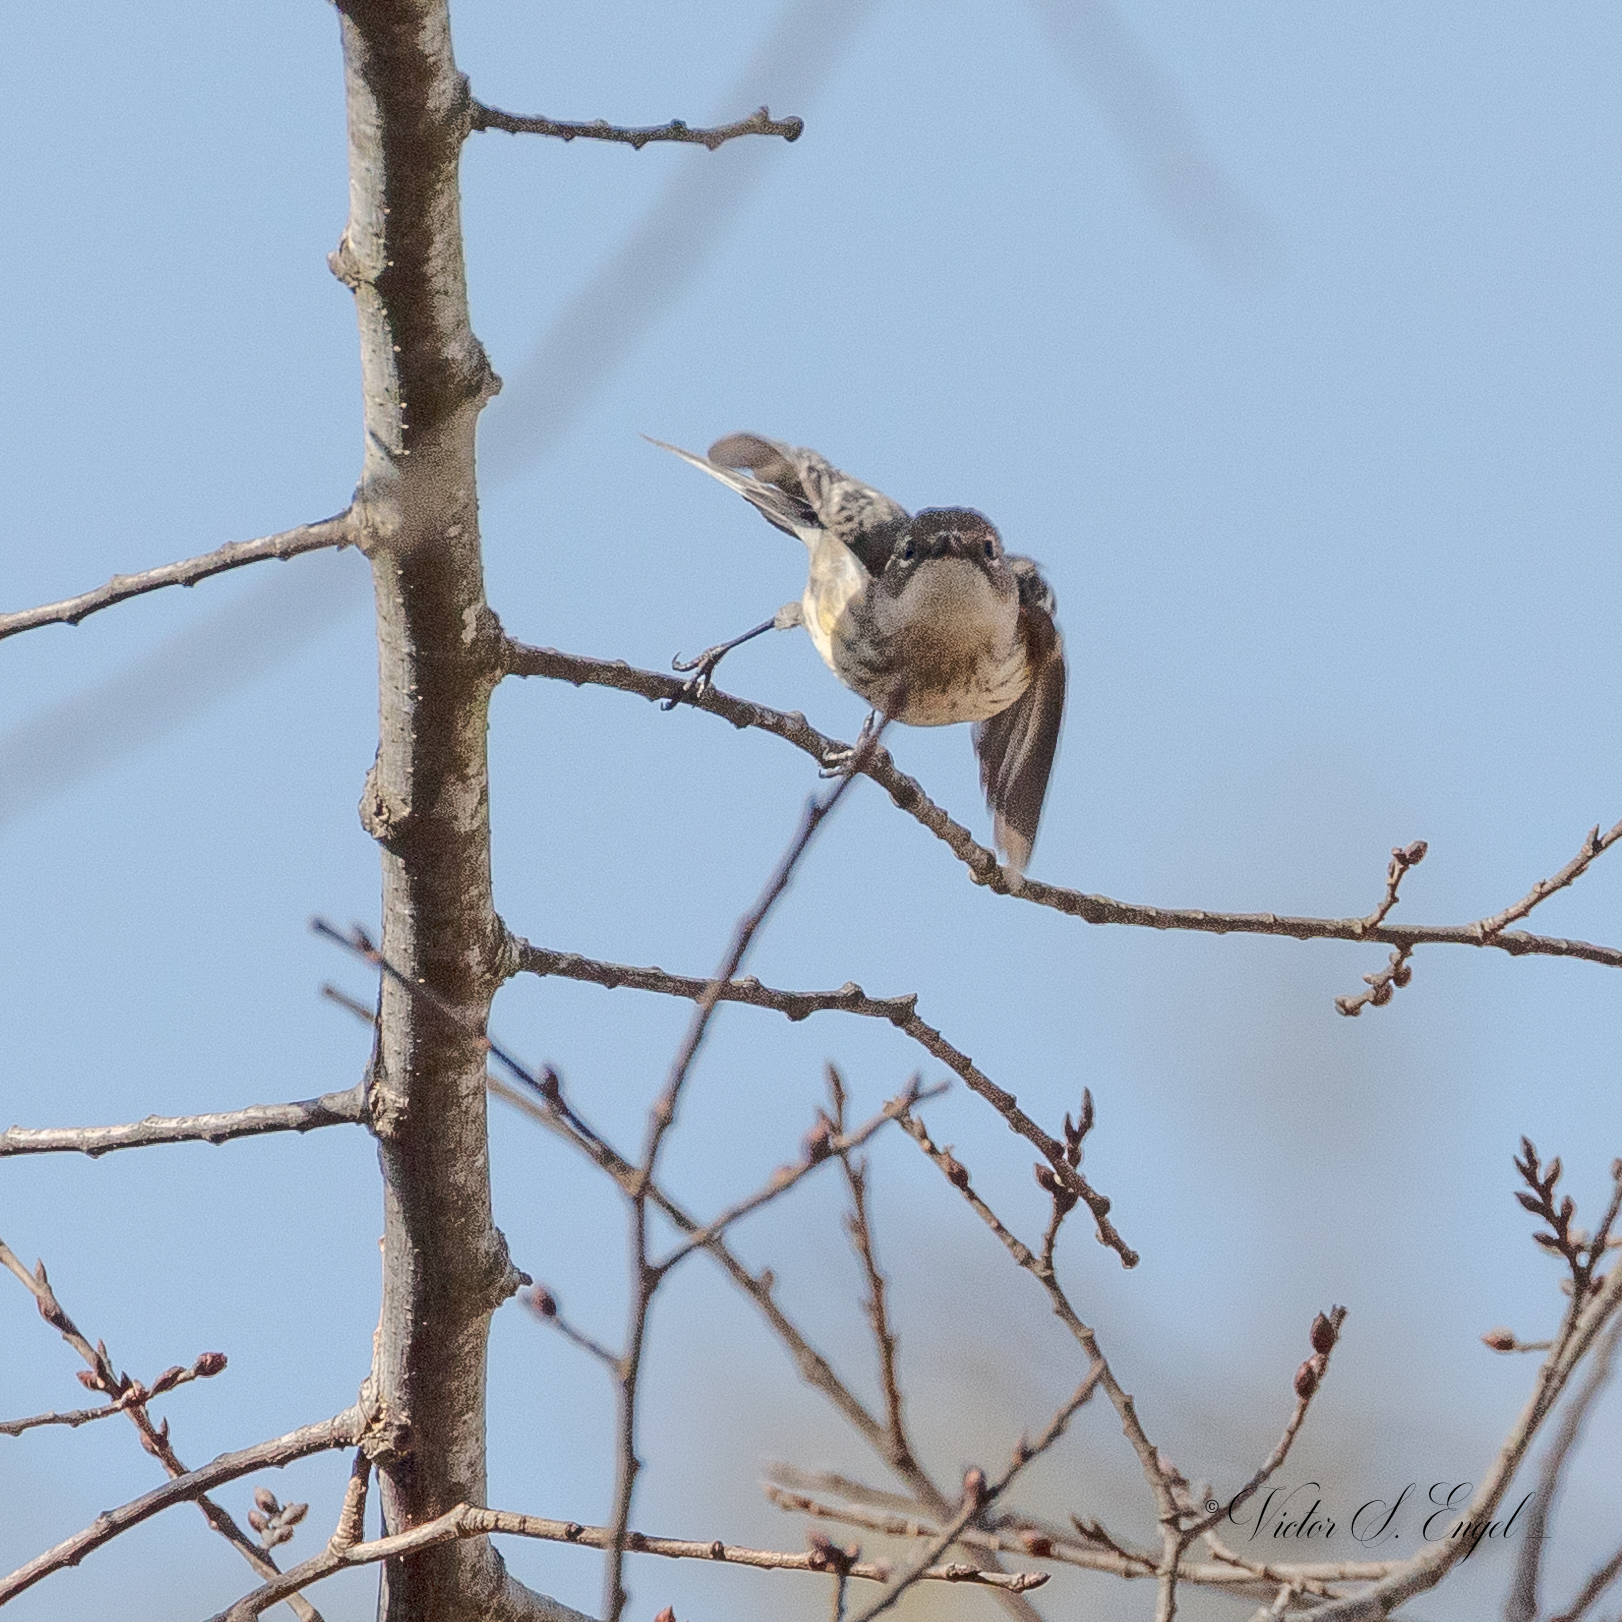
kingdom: Animalia
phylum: Chordata
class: Aves
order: Passeriformes
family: Parulidae
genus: Setophaga
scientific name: Setophaga coronata
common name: Myrtle warbler
